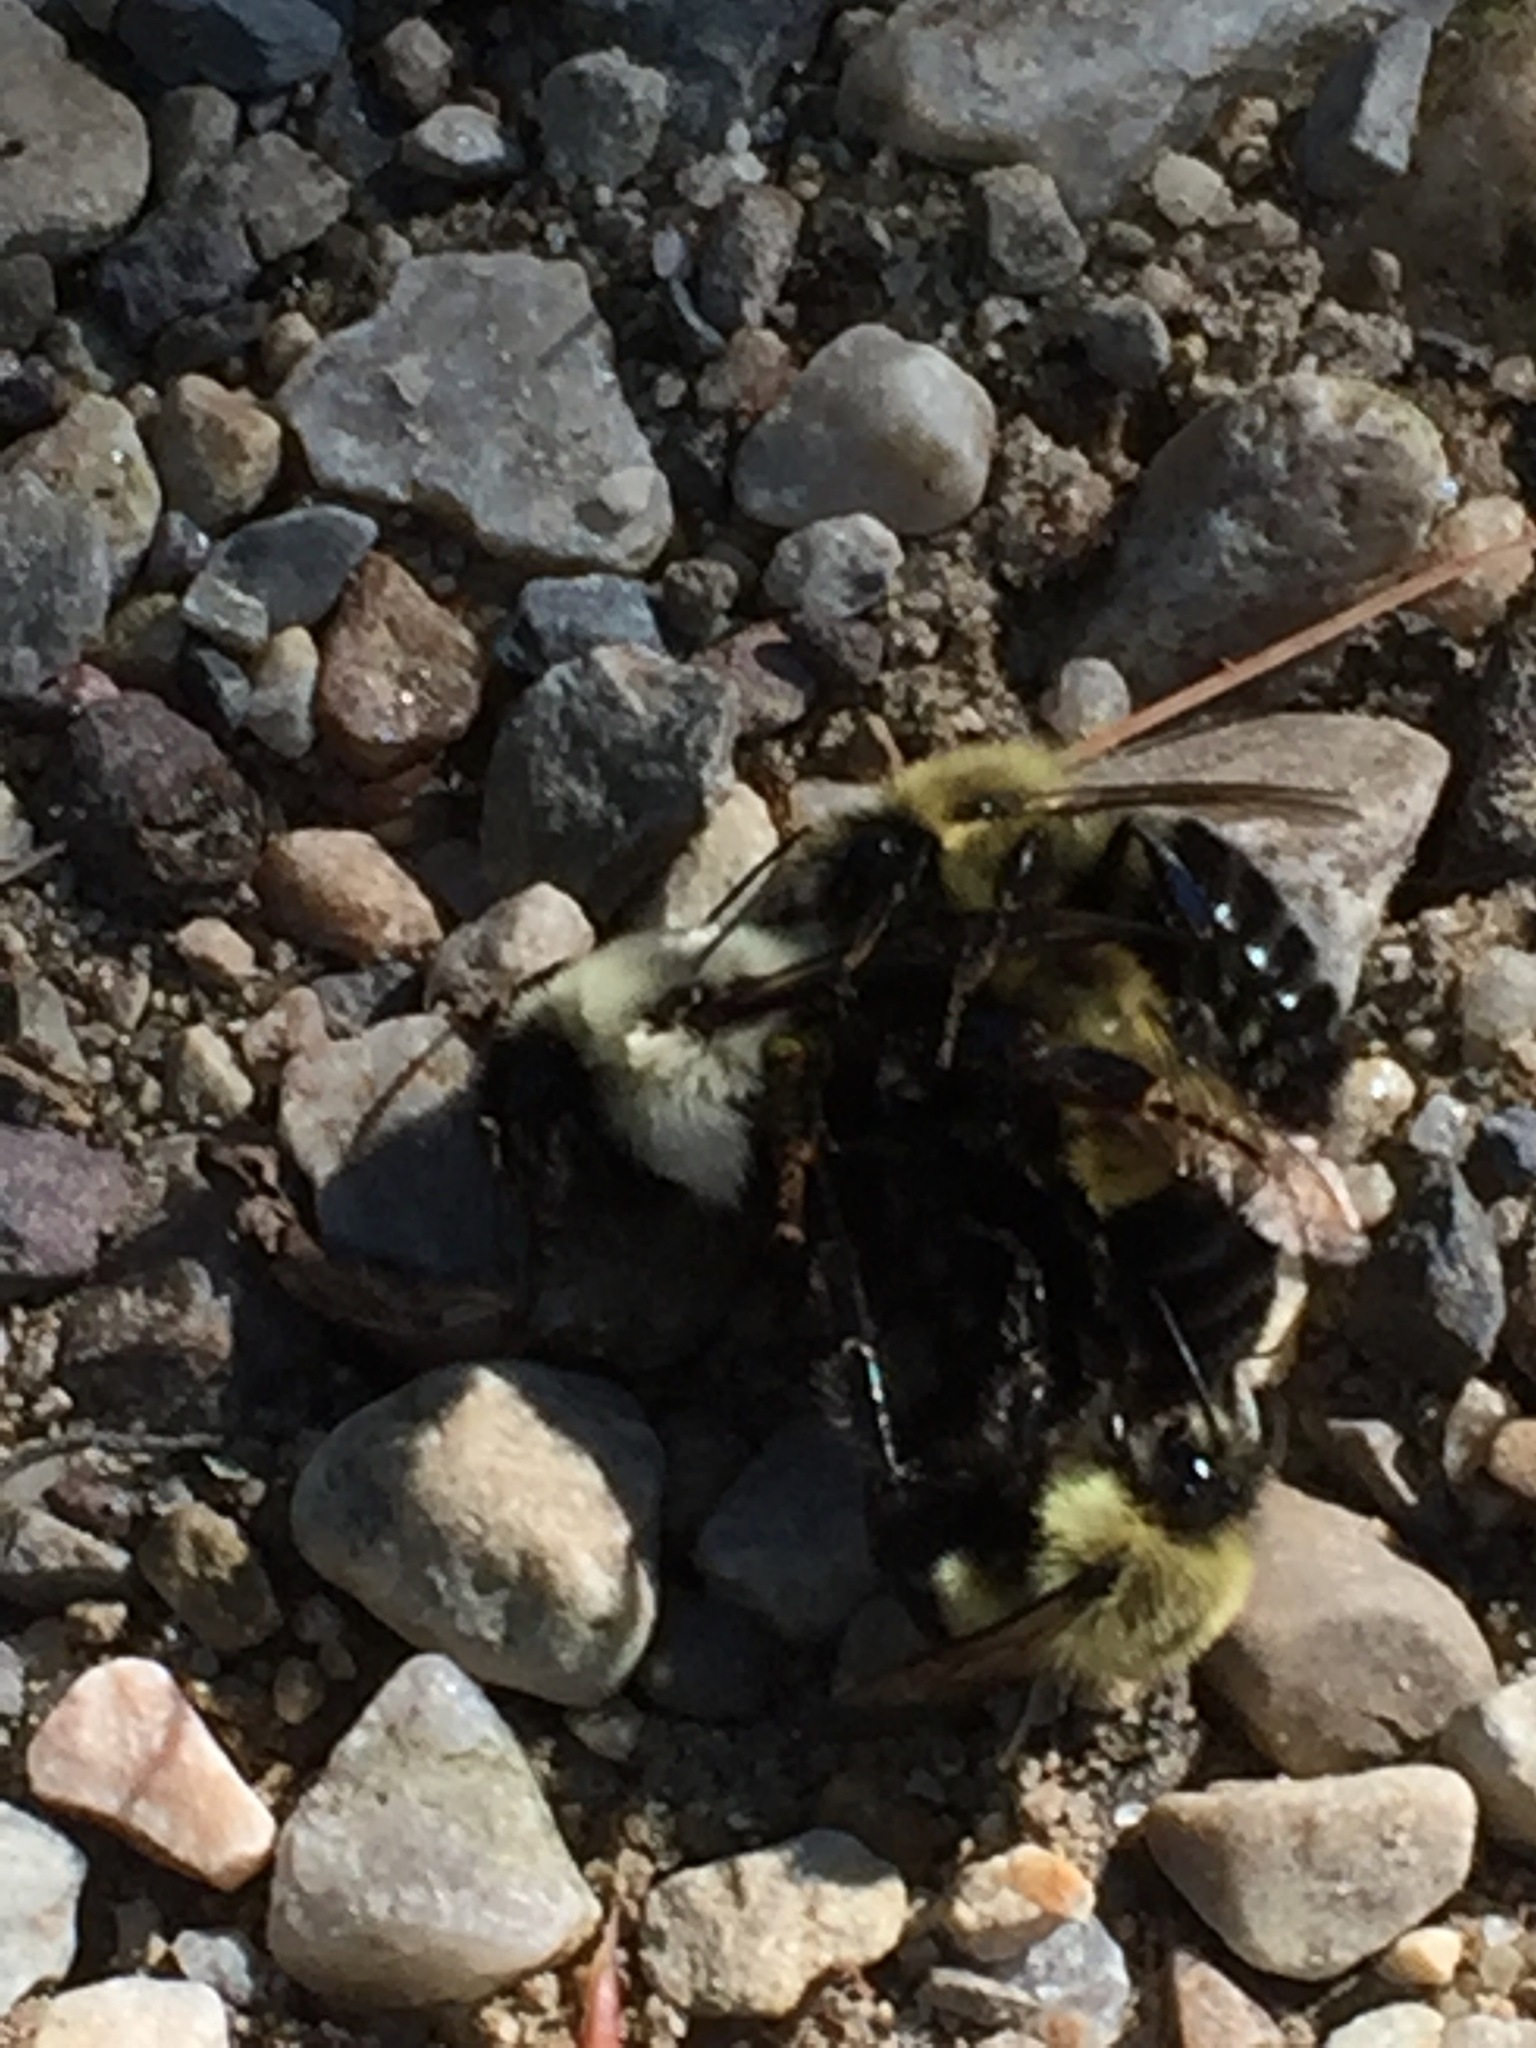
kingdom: Animalia
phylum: Arthropoda
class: Insecta
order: Hymenoptera
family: Apidae
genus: Bombus
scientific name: Bombus impatiens
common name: Common eastern bumble bee
